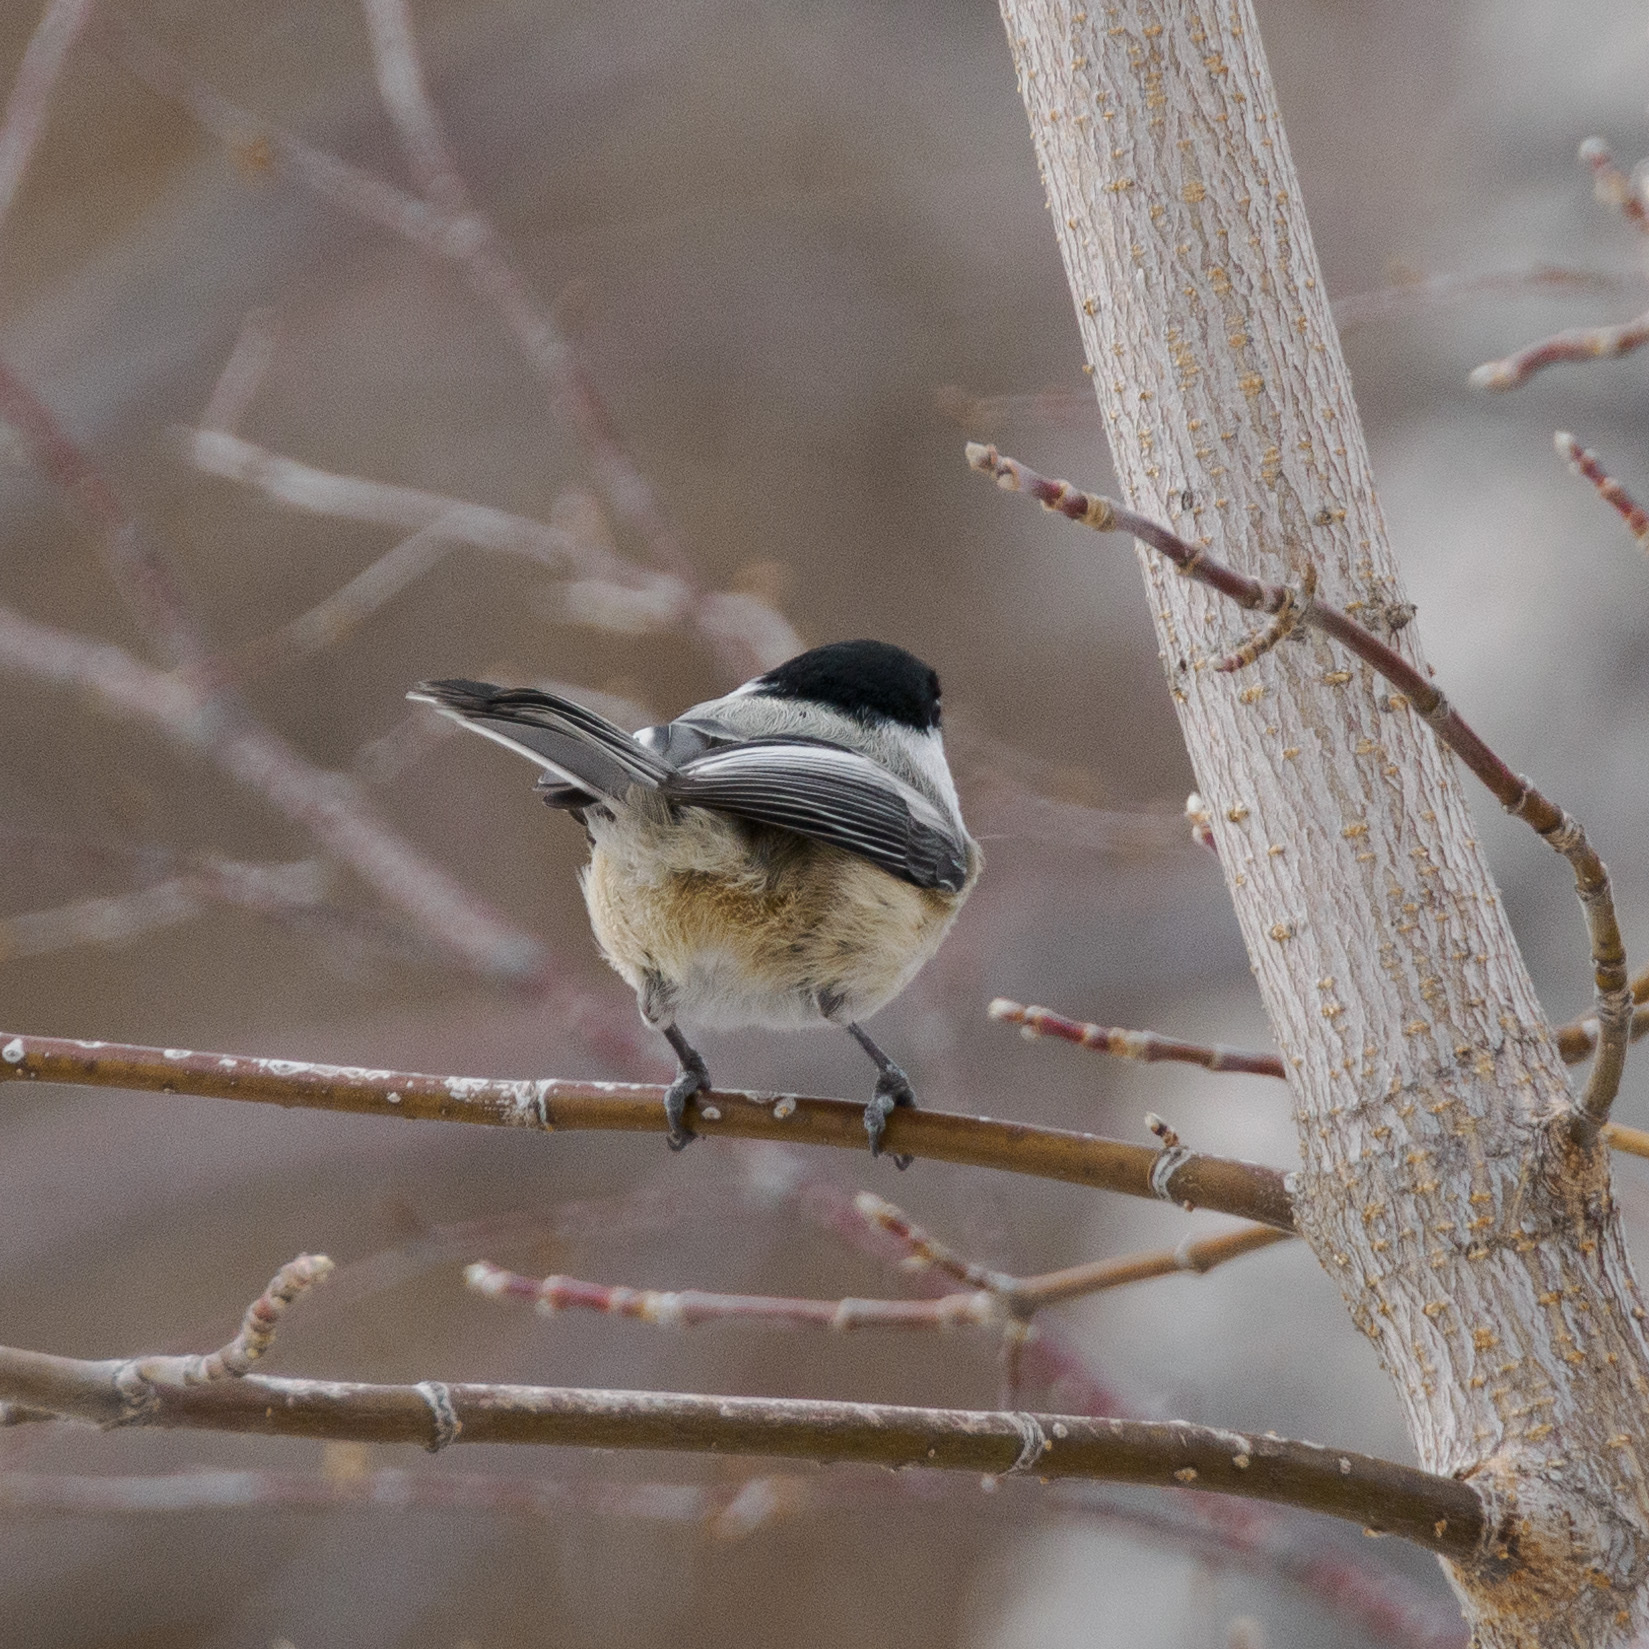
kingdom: Animalia
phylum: Chordata
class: Aves
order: Passeriformes
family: Paridae
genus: Poecile
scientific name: Poecile atricapillus
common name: Black-capped chickadee
